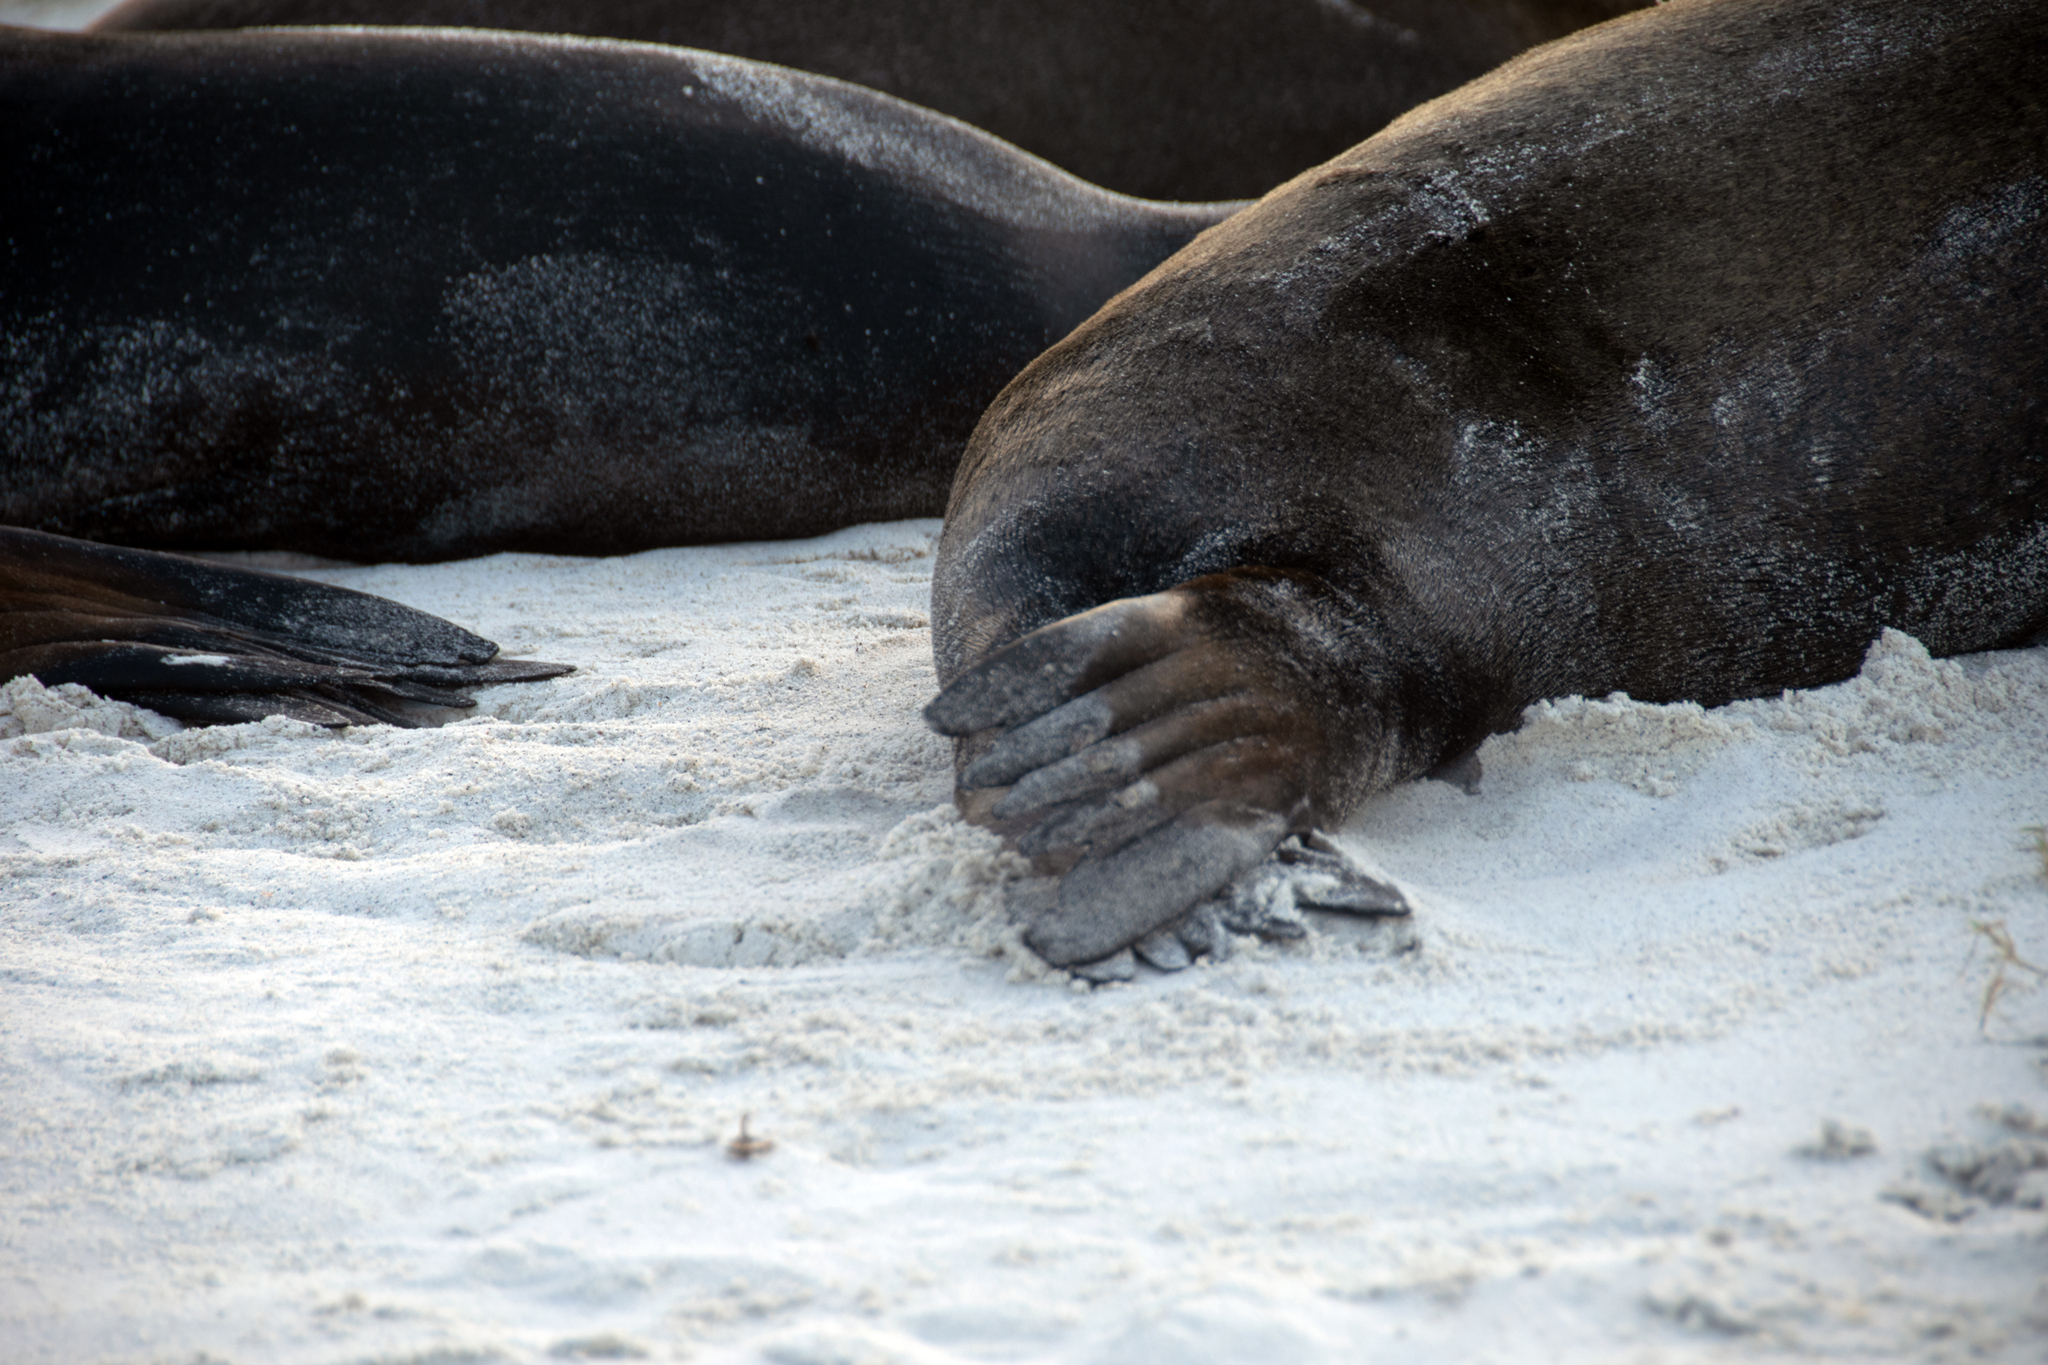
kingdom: Animalia
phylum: Chordata
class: Mammalia
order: Carnivora
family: Otariidae
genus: Zalophus
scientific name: Zalophus wollebaeki
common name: Galapagos sea lion
